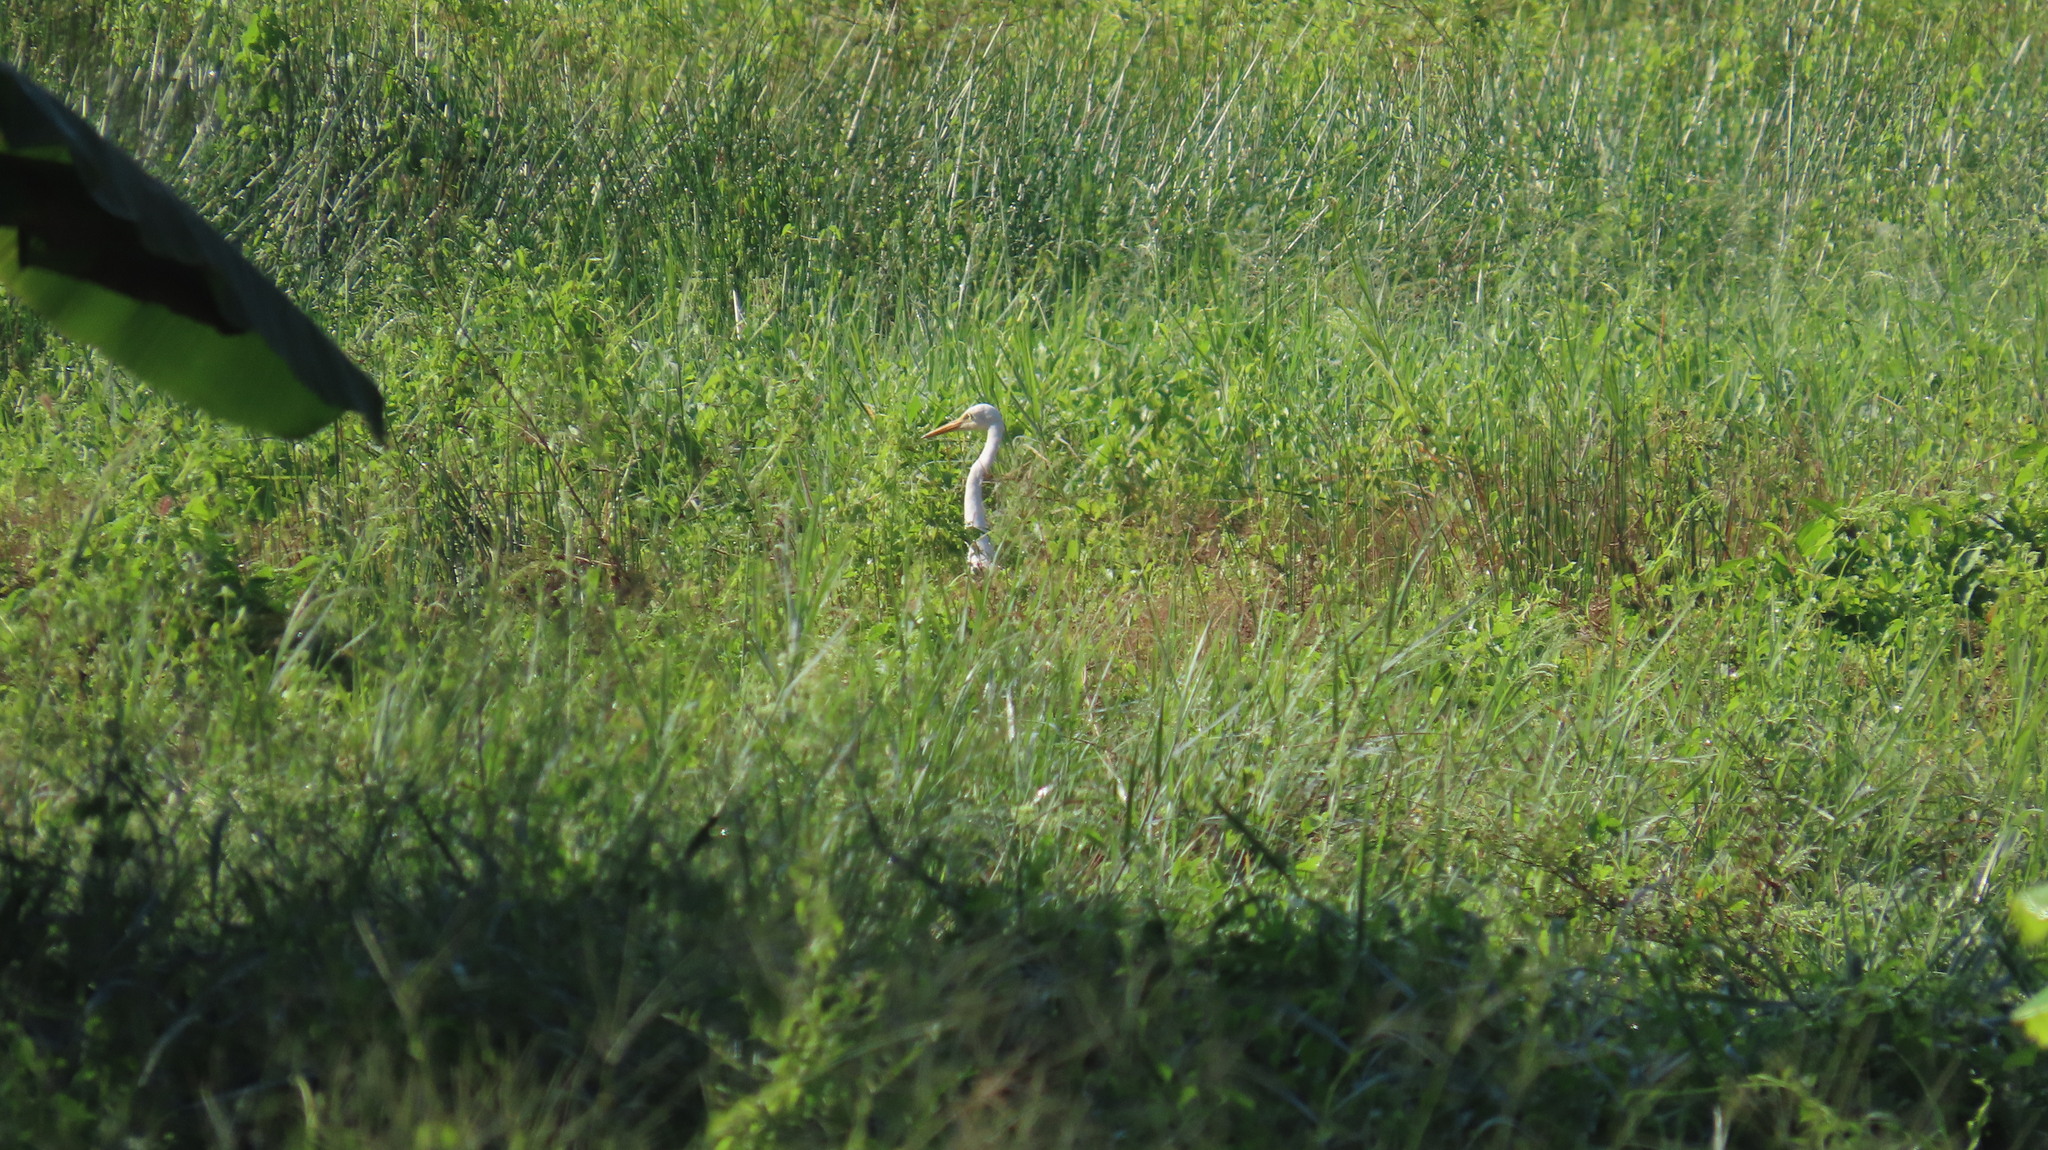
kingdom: Animalia
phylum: Chordata
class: Aves
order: Pelecaniformes
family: Ardeidae
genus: Egretta
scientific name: Egretta intermedia
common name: Intermediate egret
